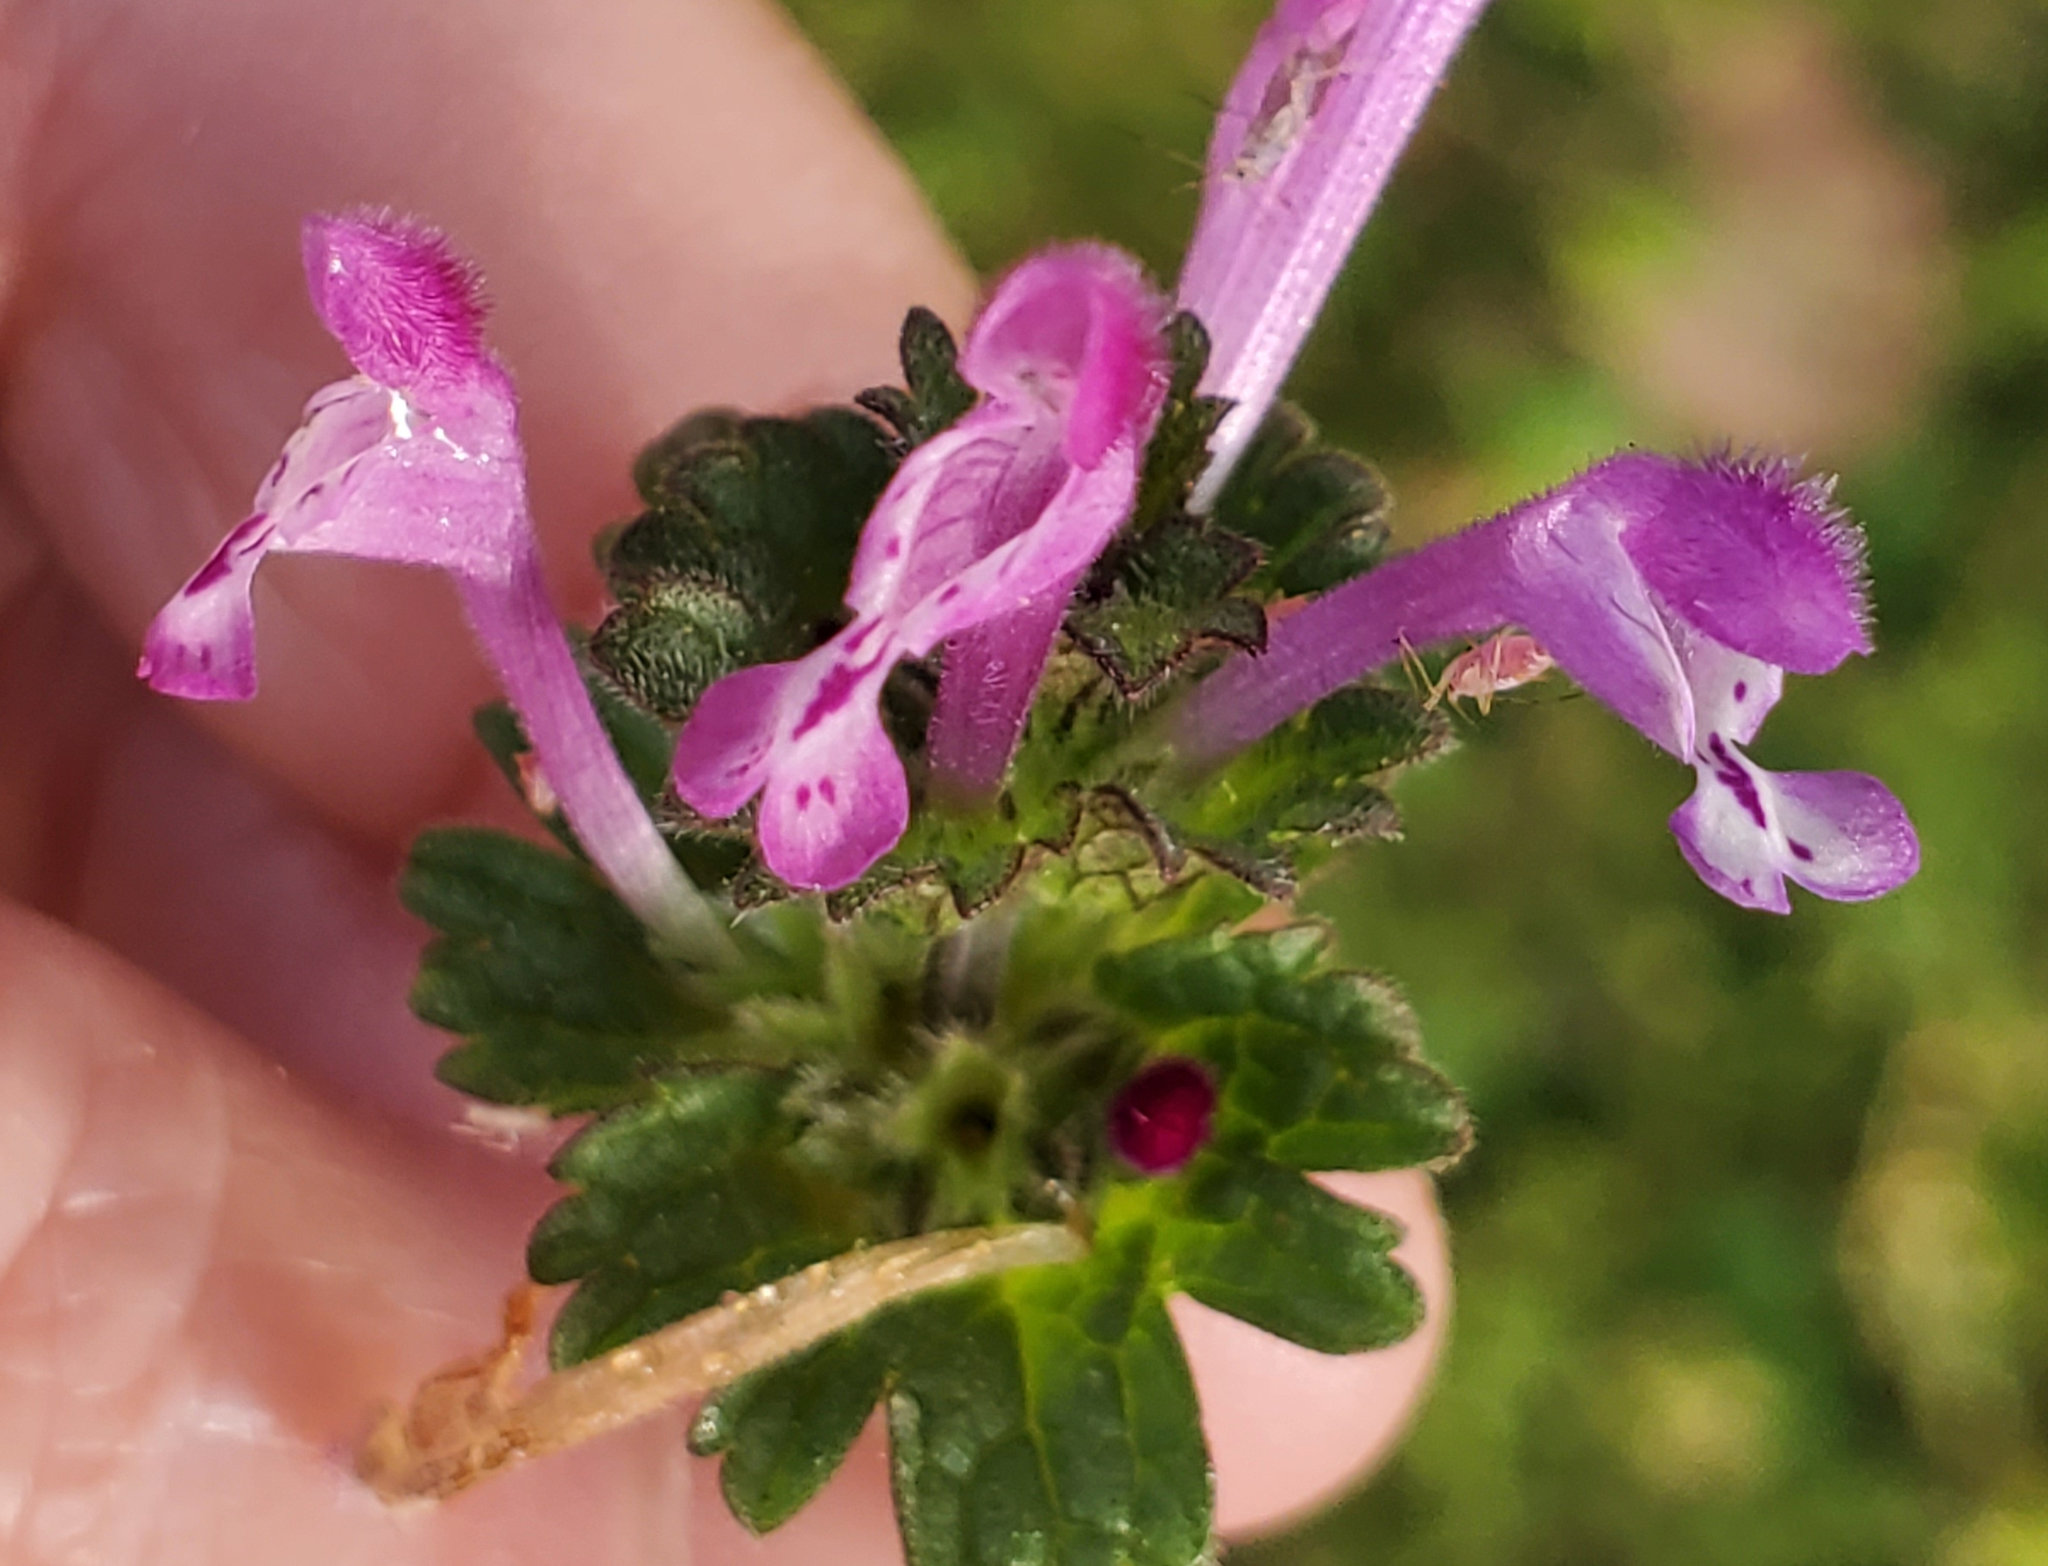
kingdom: Plantae
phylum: Tracheophyta
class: Magnoliopsida
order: Lamiales
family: Lamiaceae
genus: Lamium
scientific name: Lamium amplexicaule
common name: Henbit dead-nettle
